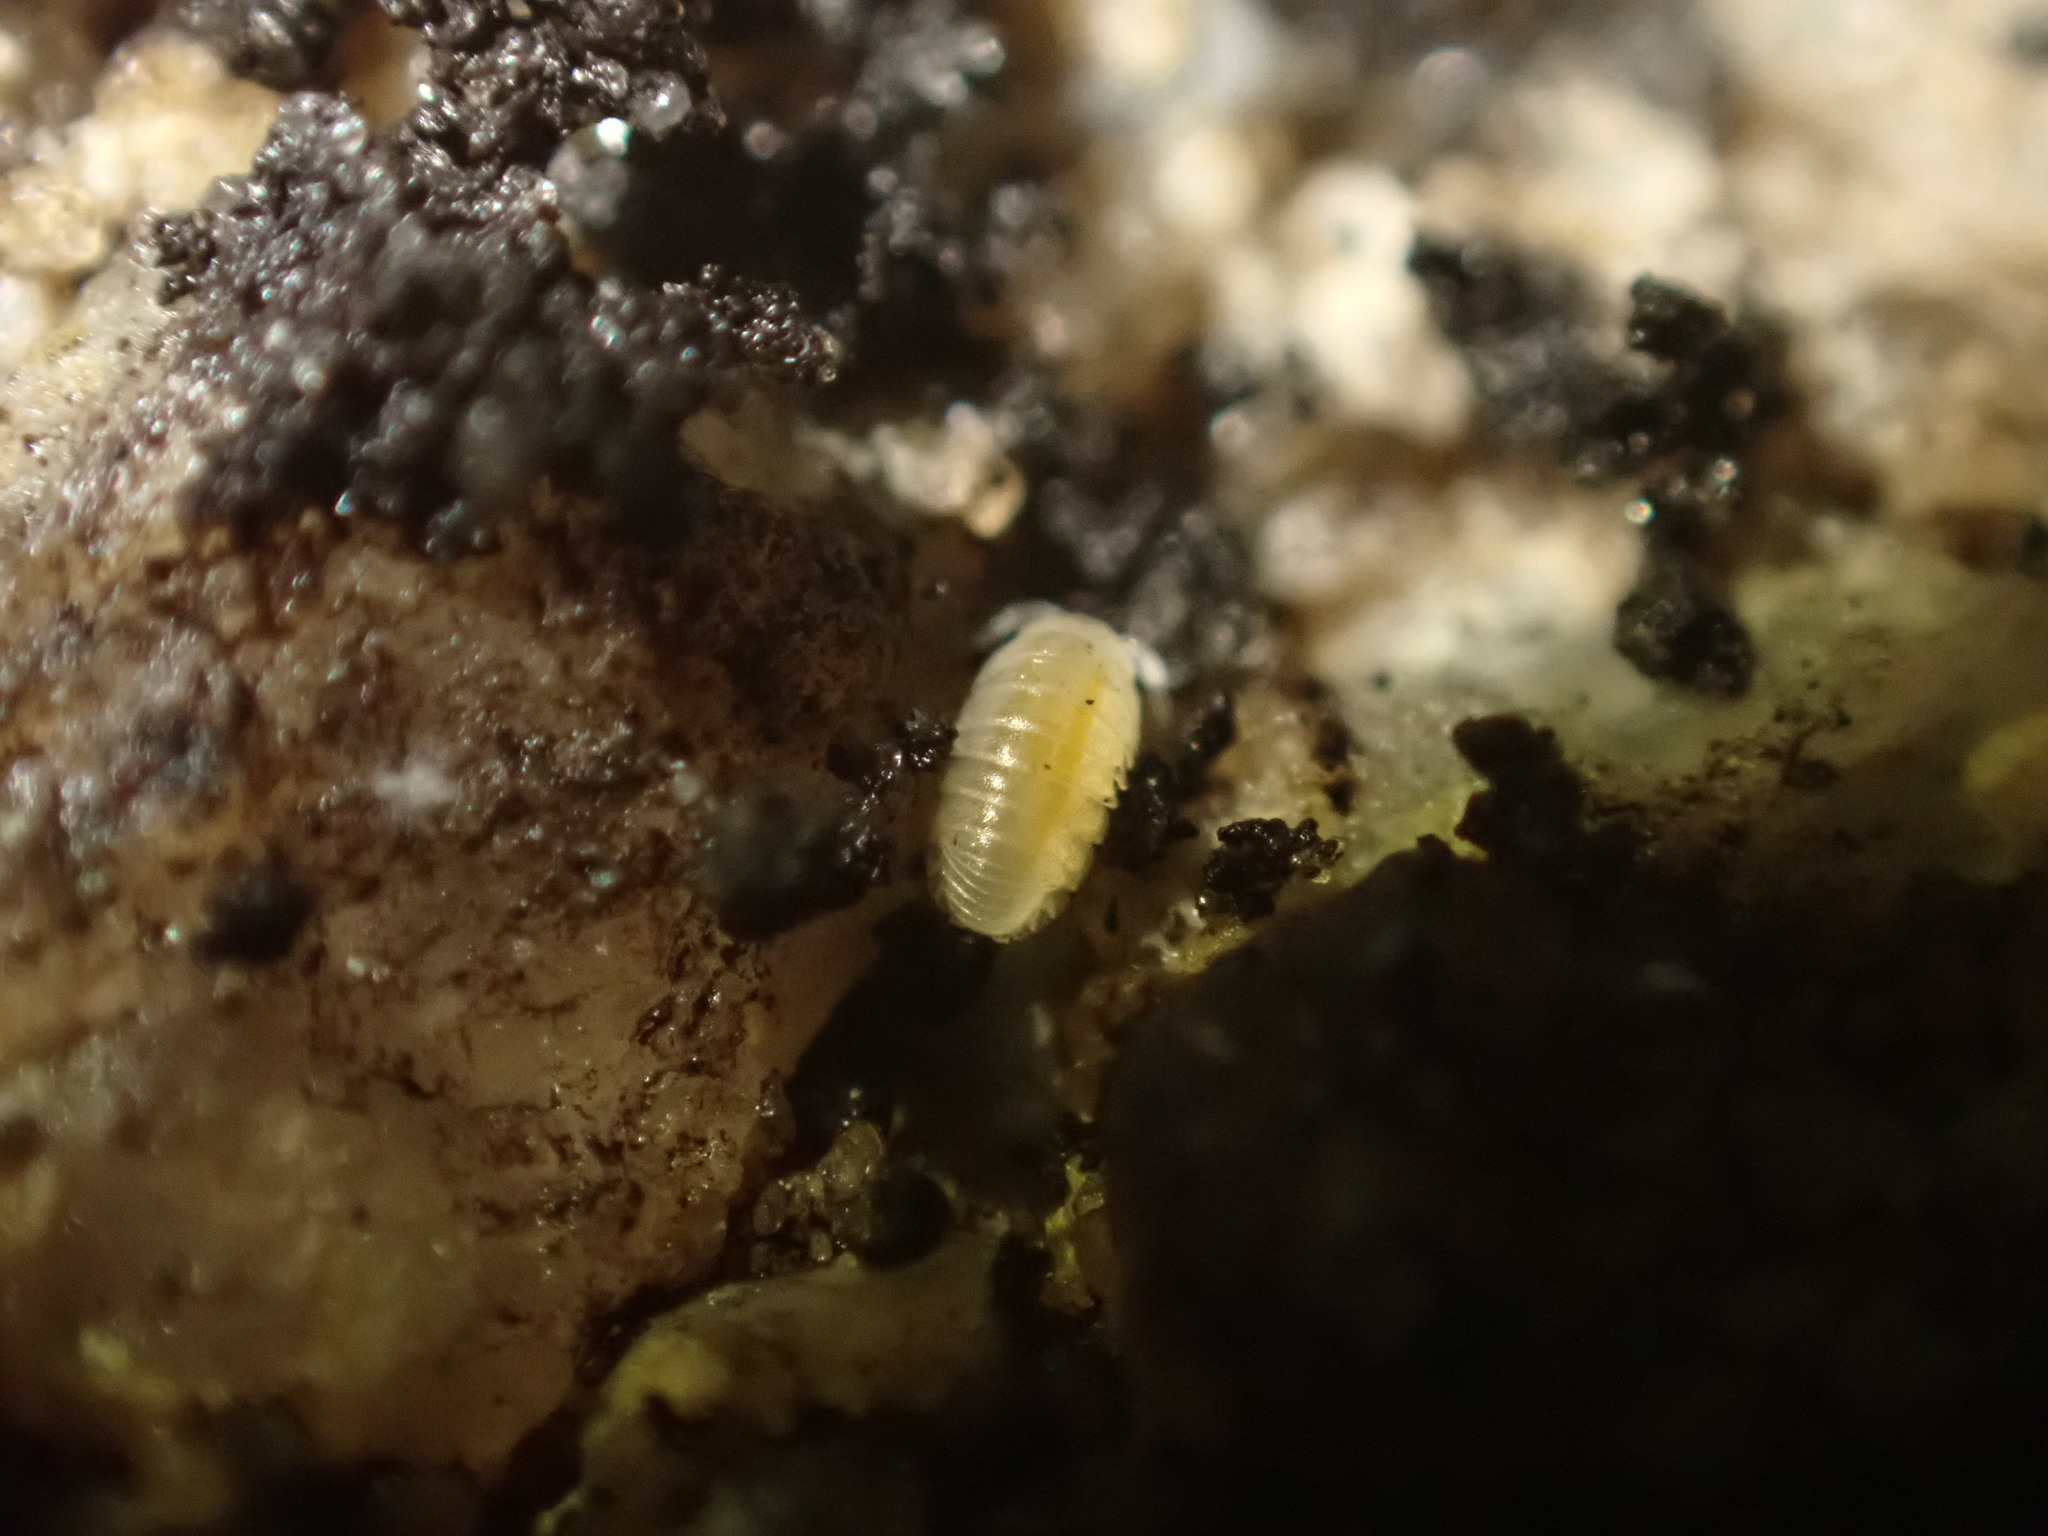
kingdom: Animalia
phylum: Arthropoda
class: Malacostraca
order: Isopoda
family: Armadillidiidae
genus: Armadillidium
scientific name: Armadillidium vulgare
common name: Common pill woodlouse
